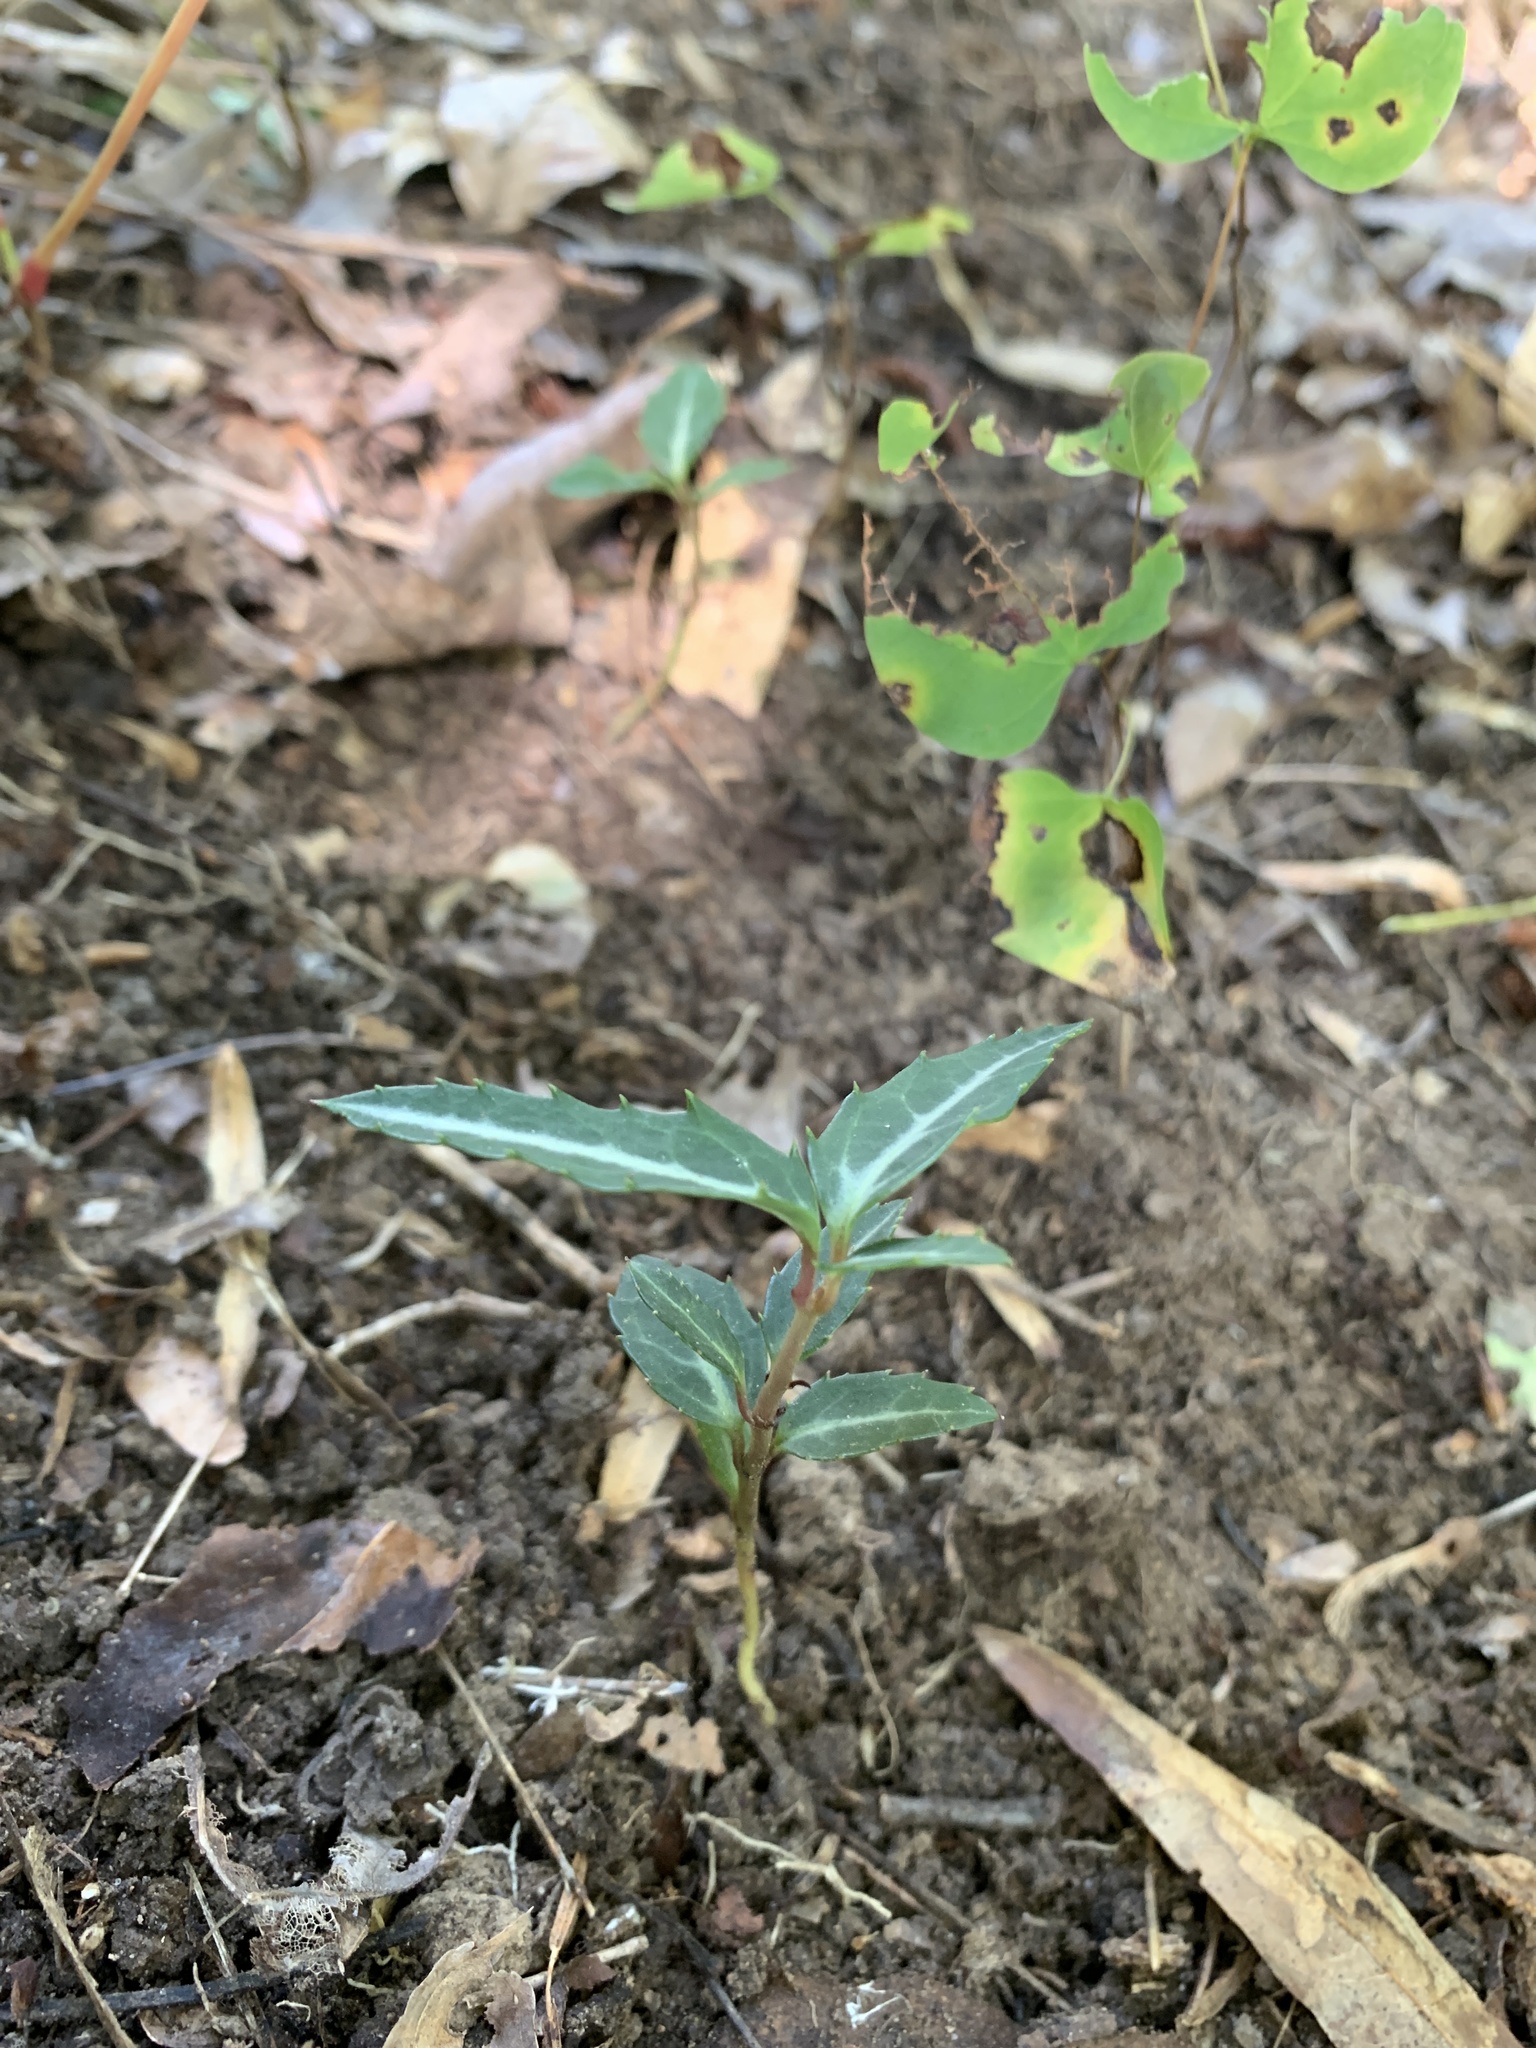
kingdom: Plantae
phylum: Tracheophyta
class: Magnoliopsida
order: Ericales
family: Ericaceae
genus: Chimaphila
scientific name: Chimaphila maculata
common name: Spotted pipsissewa
